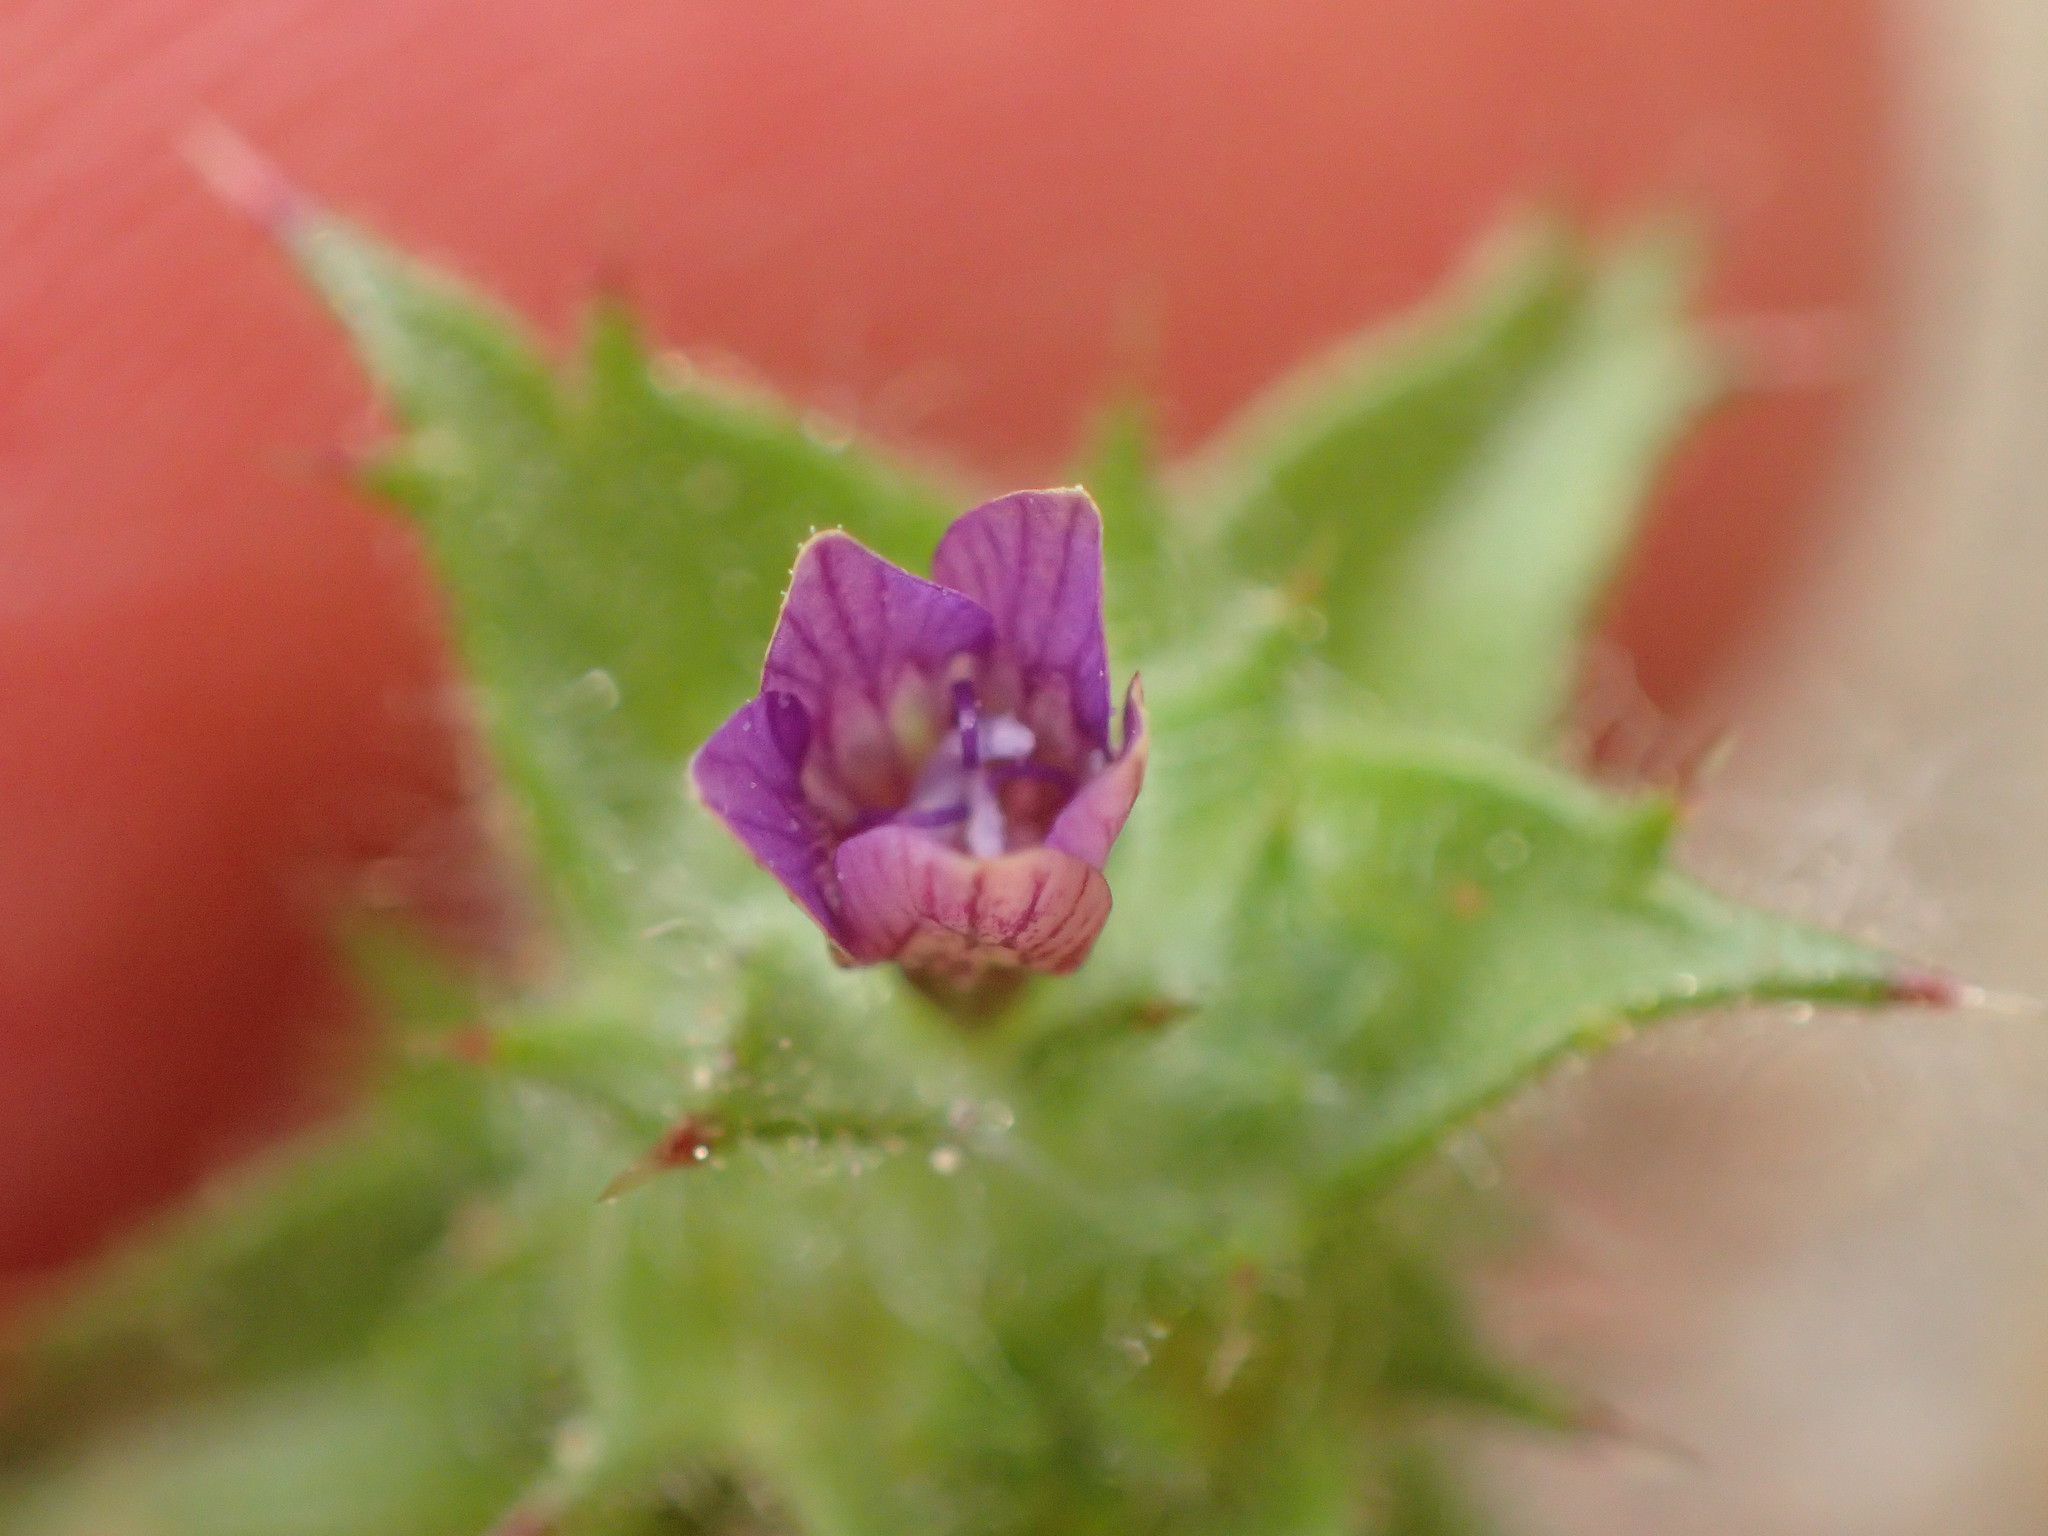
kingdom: Plantae
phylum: Tracheophyta
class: Magnoliopsida
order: Ericales
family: Polemoniaceae
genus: Navarretia
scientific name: Navarretia atractyloides
